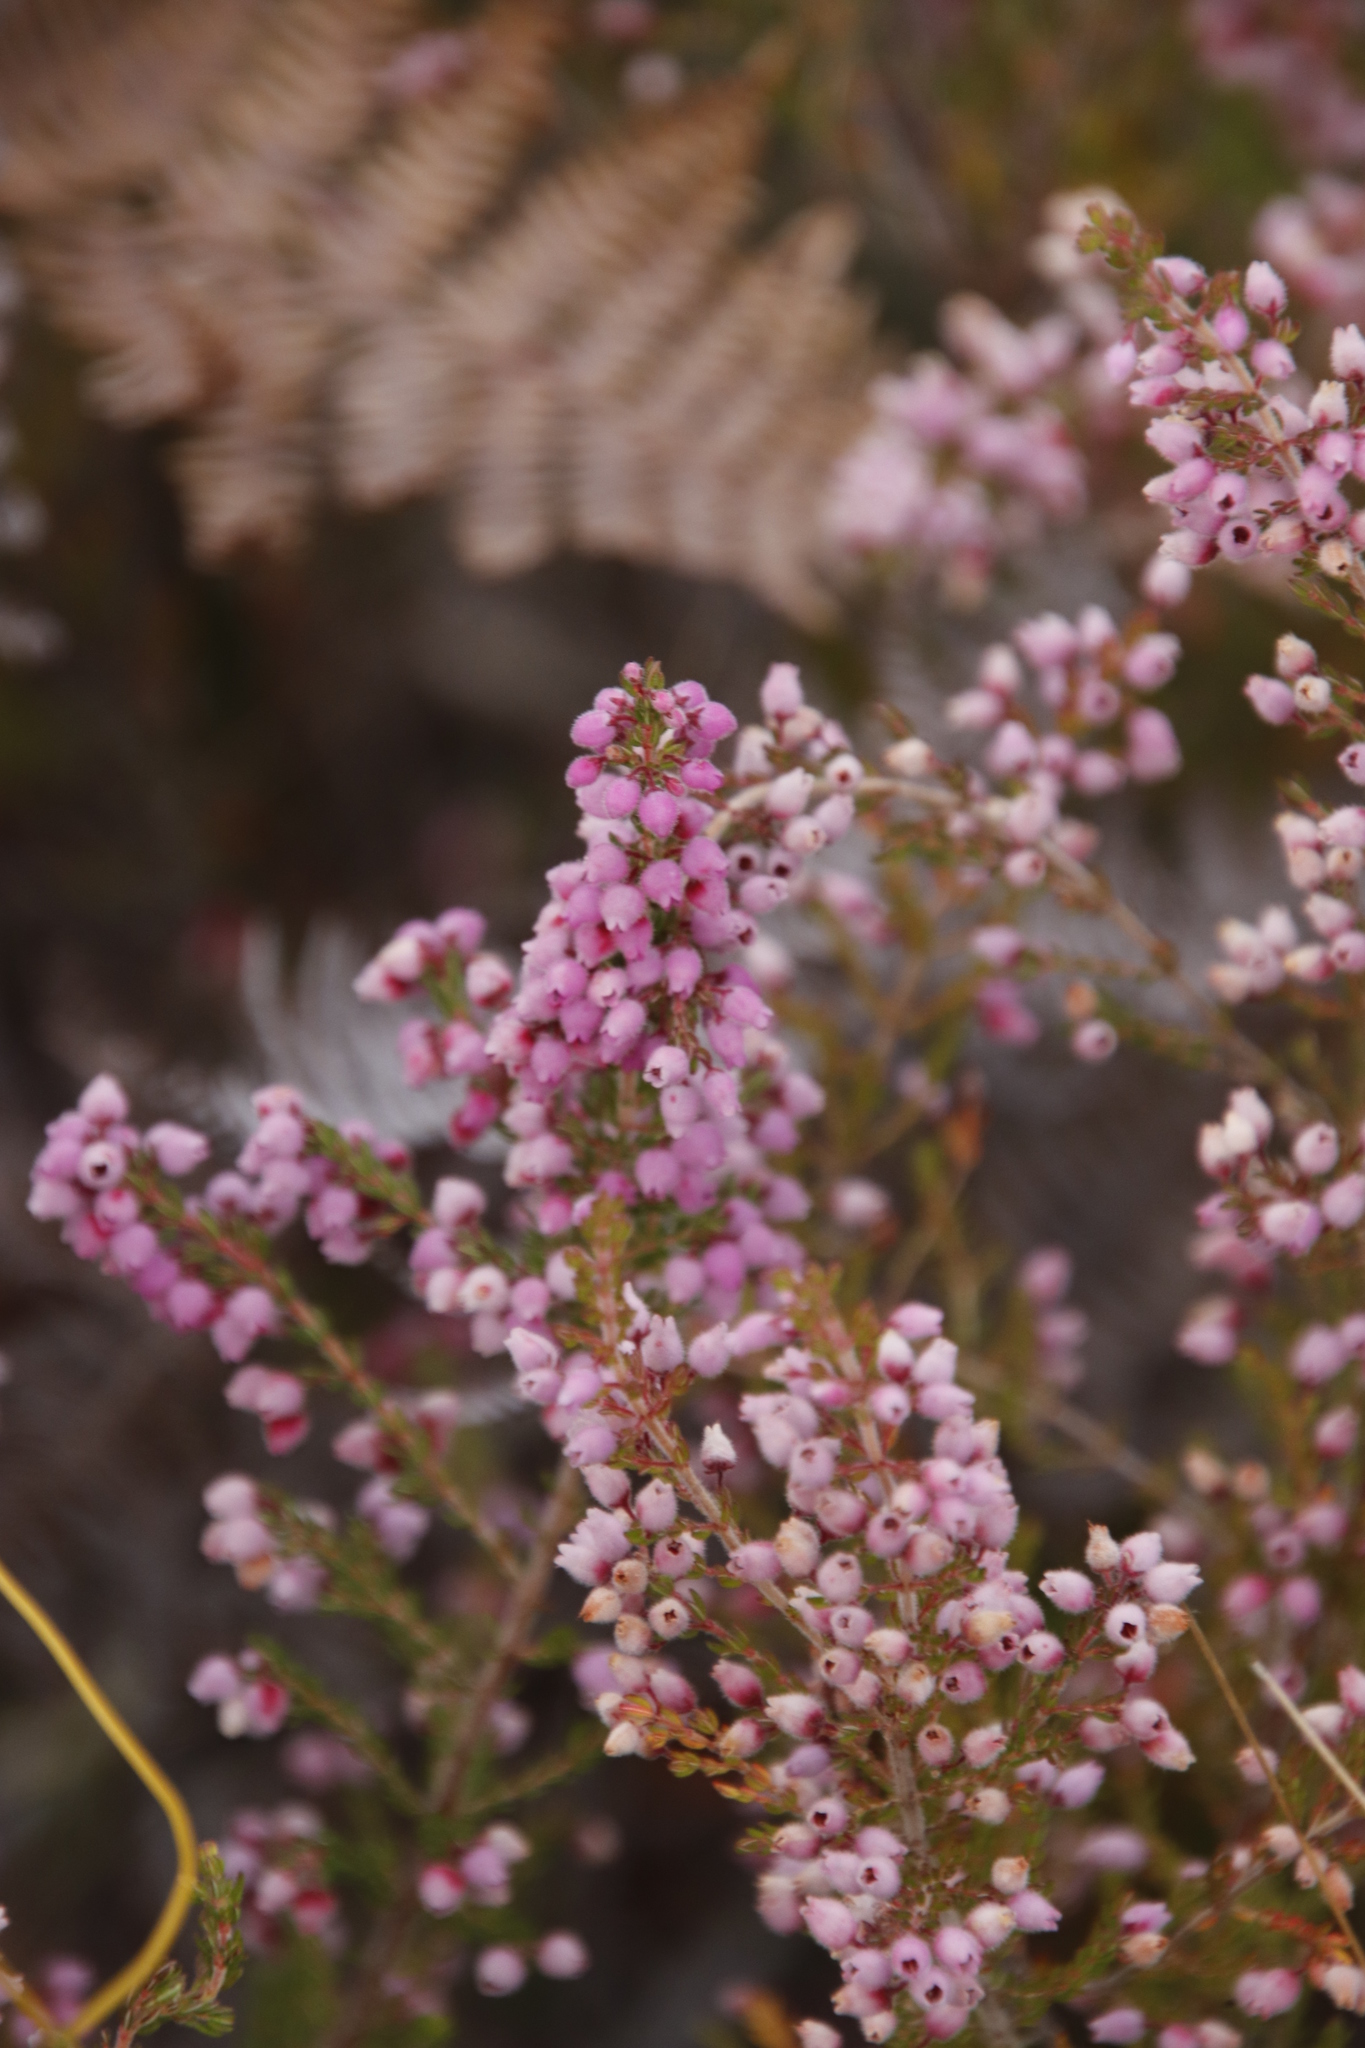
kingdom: Plantae
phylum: Tracheophyta
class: Magnoliopsida
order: Ericales
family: Ericaceae
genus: Erica
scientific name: Erica hirtiflora
